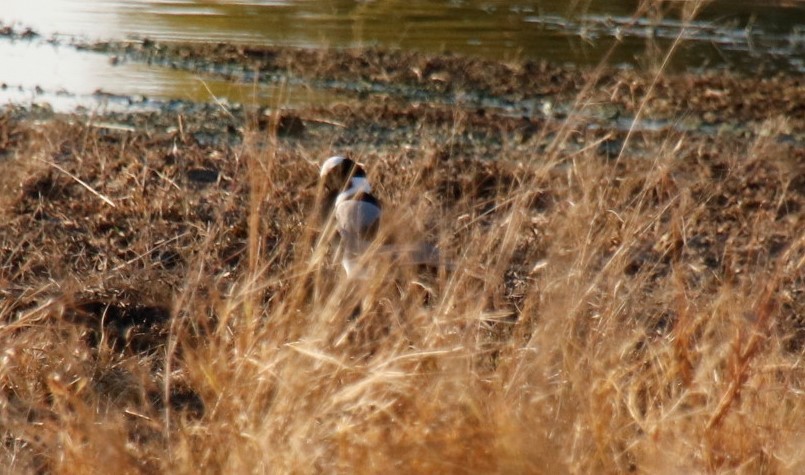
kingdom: Animalia
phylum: Chordata
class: Aves
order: Charadriiformes
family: Charadriidae
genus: Vanellus
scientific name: Vanellus armatus
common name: Blacksmith lapwing
